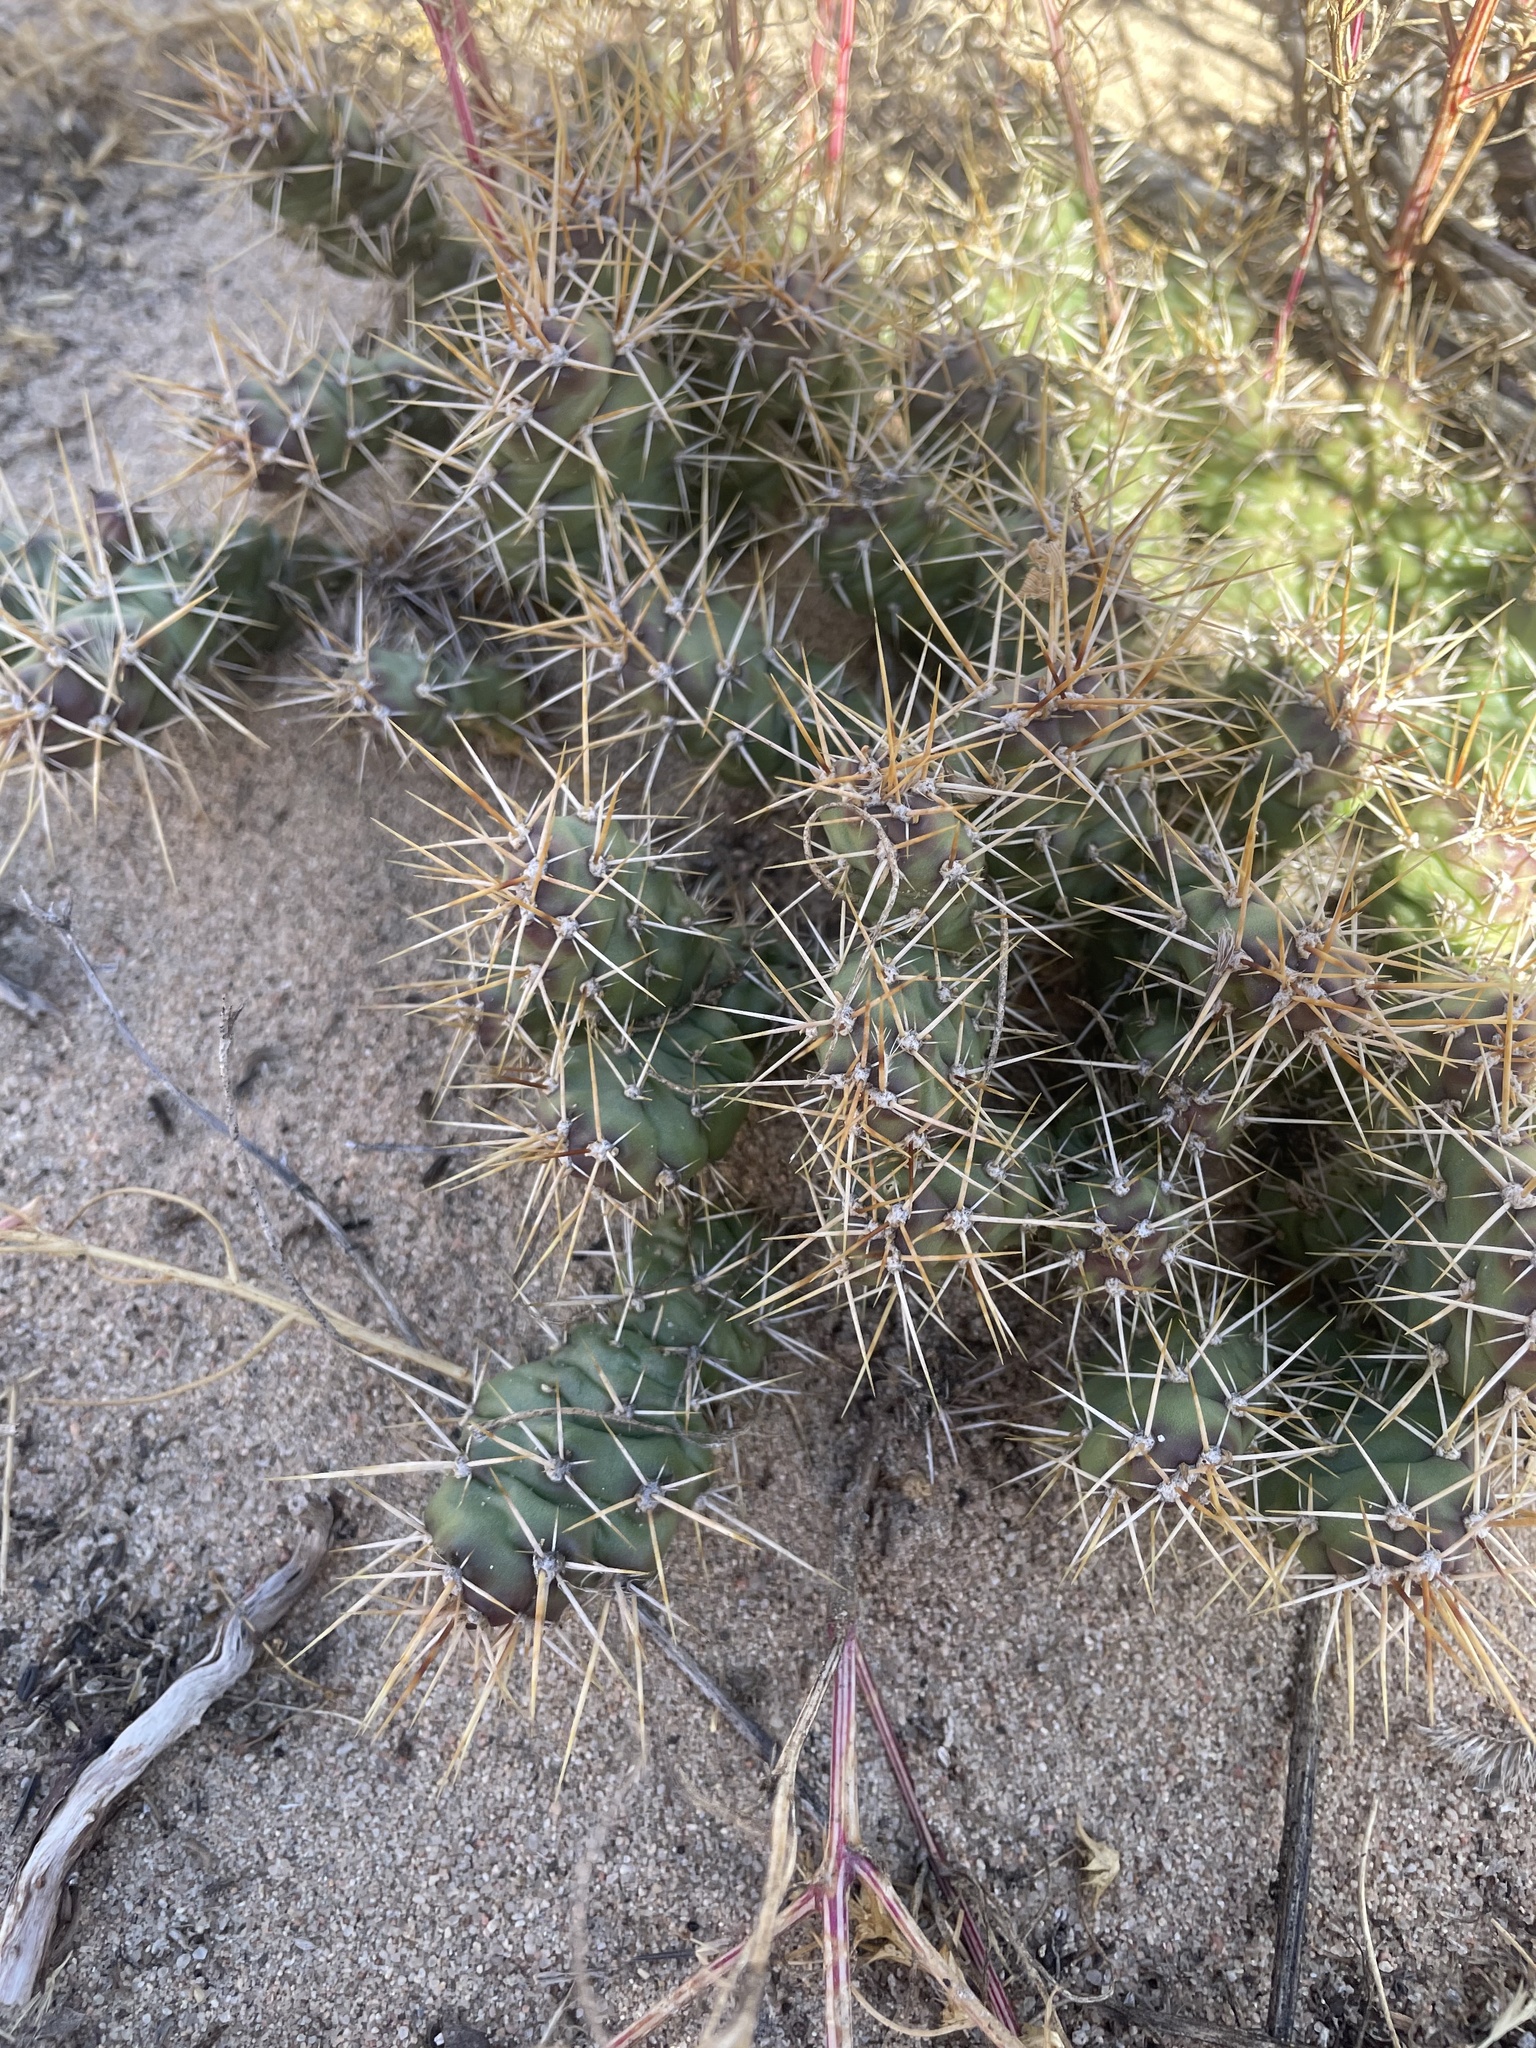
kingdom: Plantae
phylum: Tracheophyta
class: Magnoliopsida
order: Caryophyllales
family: Cactaceae
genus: Opuntia
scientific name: Opuntia fragilis
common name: Brittle cactus
